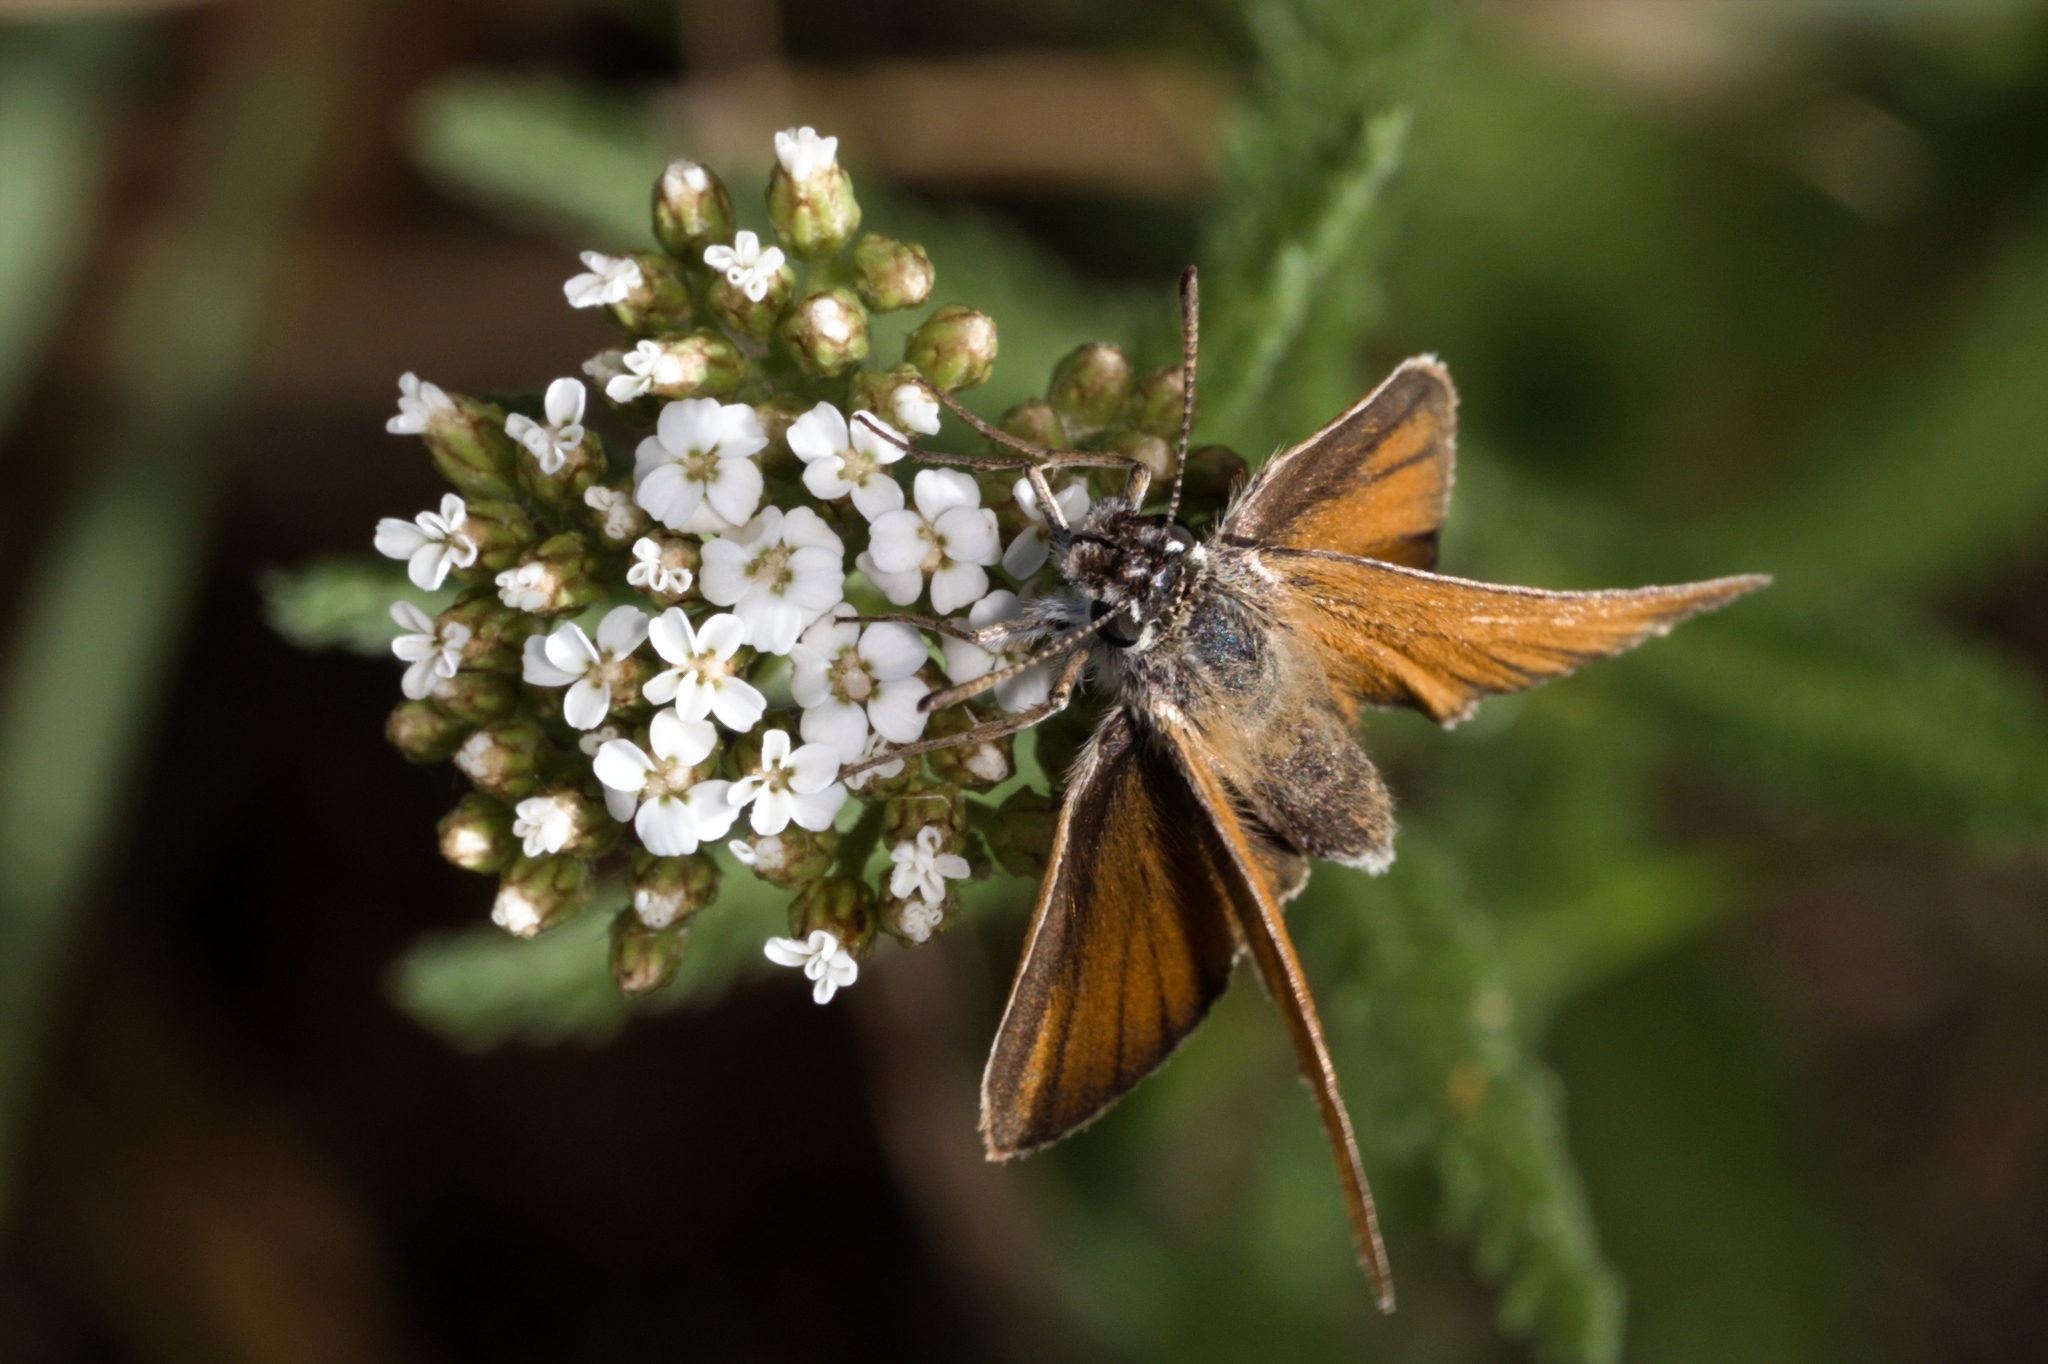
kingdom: Animalia
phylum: Arthropoda
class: Insecta
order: Lepidoptera
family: Hesperiidae
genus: Thymelicus
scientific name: Thymelicus lineola
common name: Essex skipper
